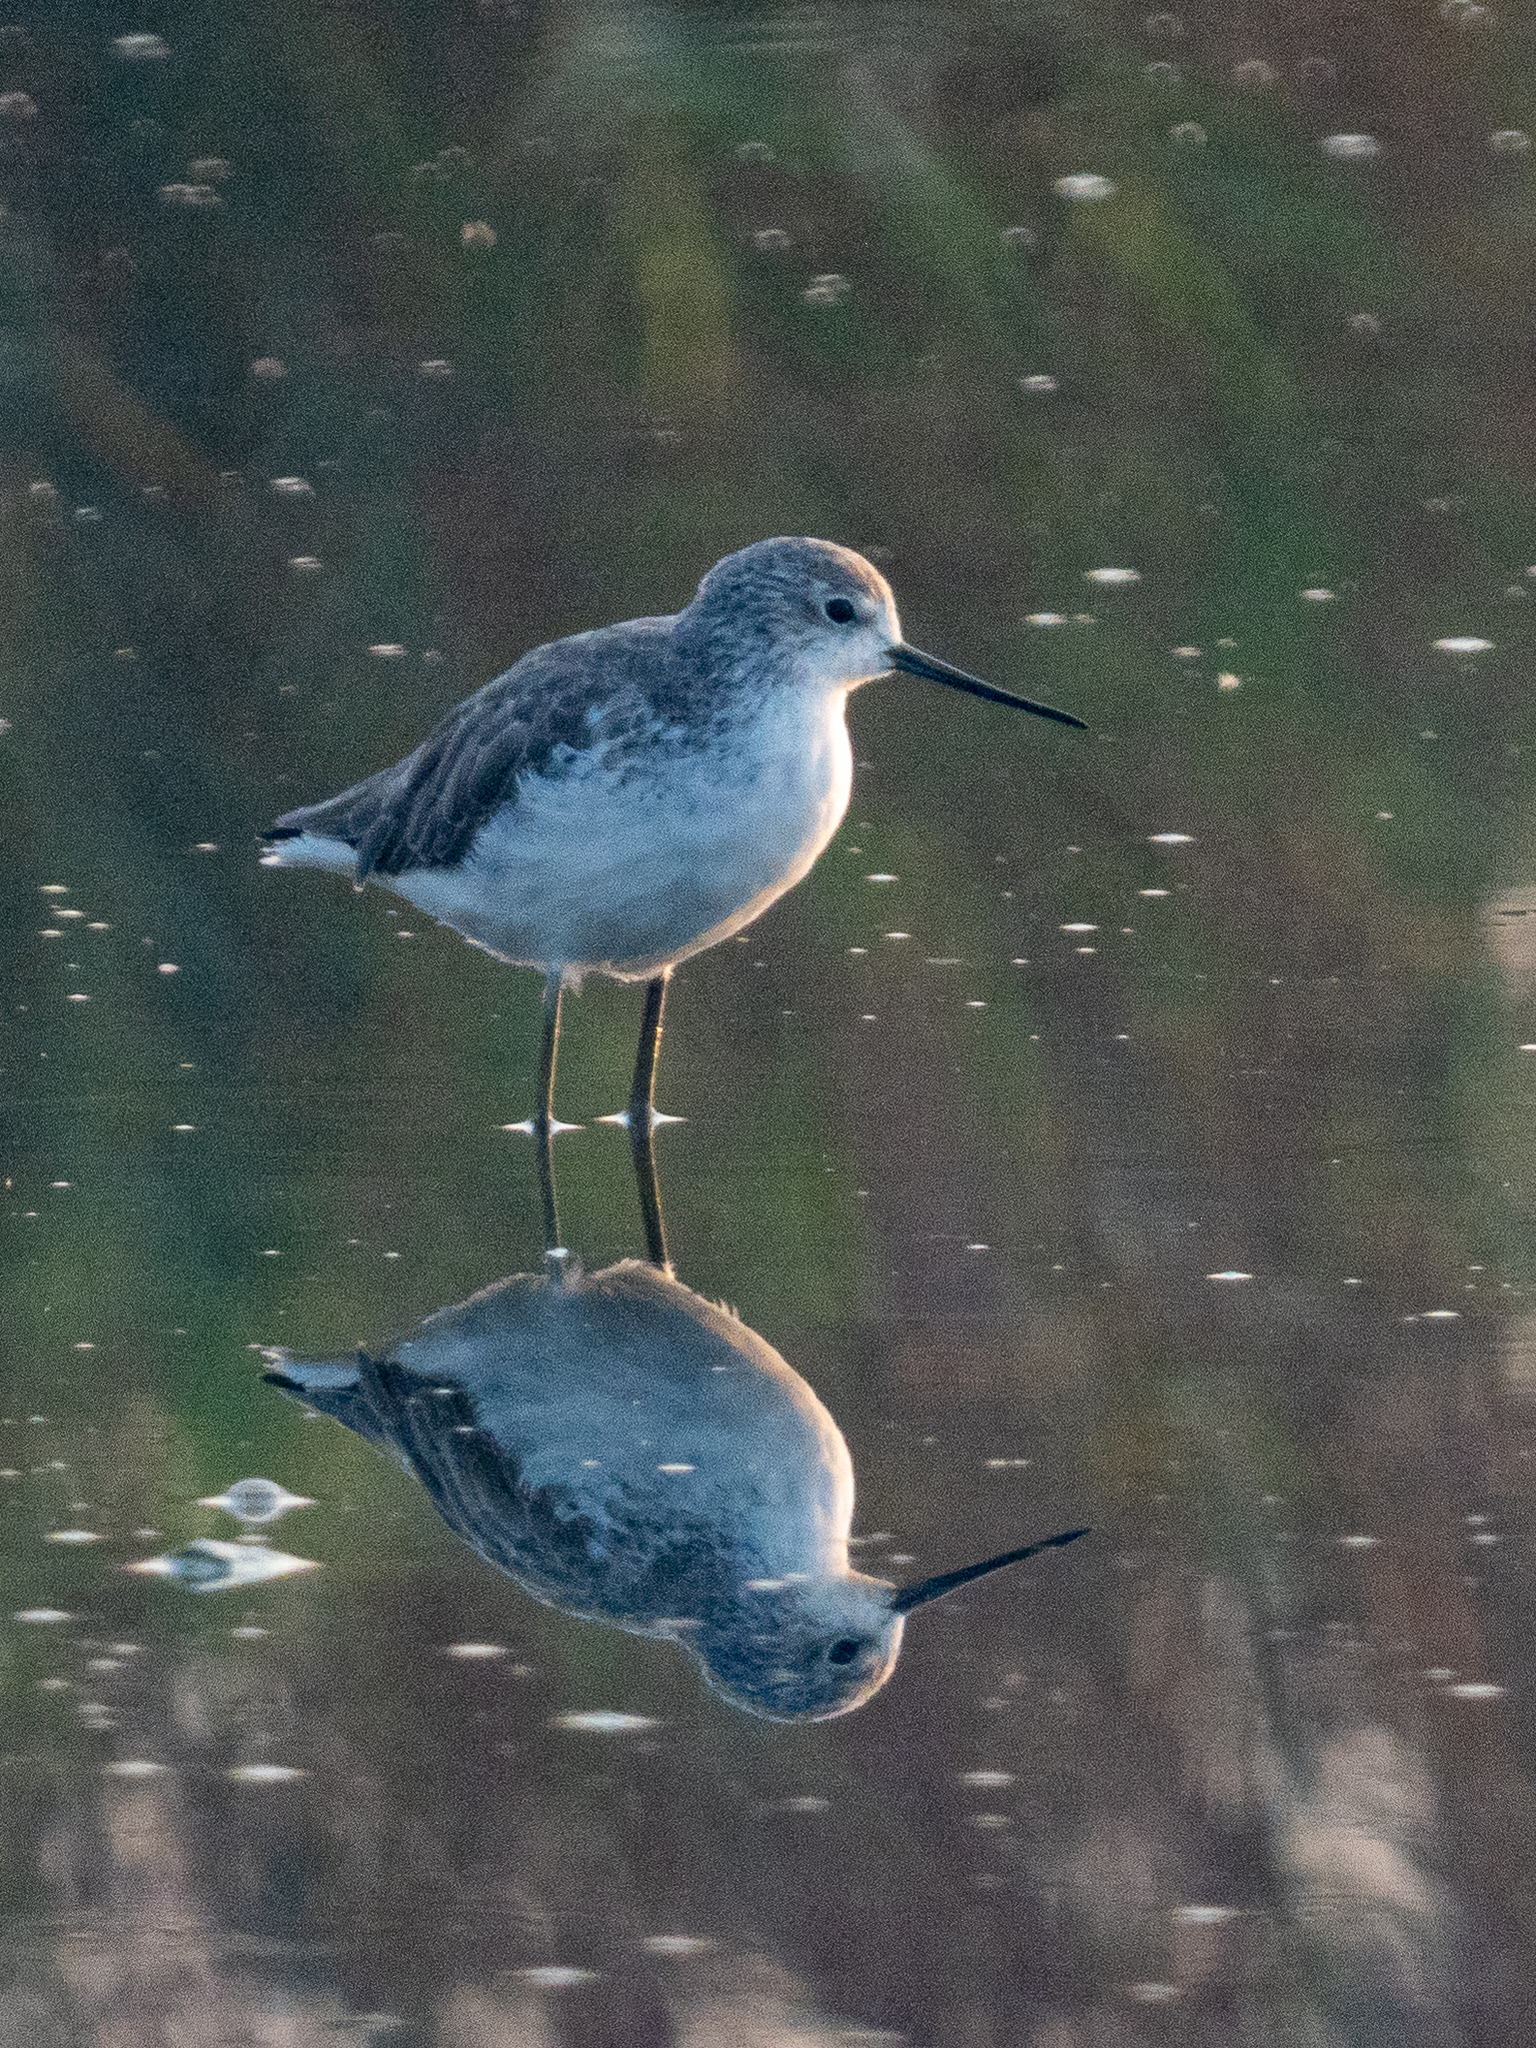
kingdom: Animalia
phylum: Chordata
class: Aves
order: Charadriiformes
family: Scolopacidae
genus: Tringa
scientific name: Tringa stagnatilis
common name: Marsh sandpiper
